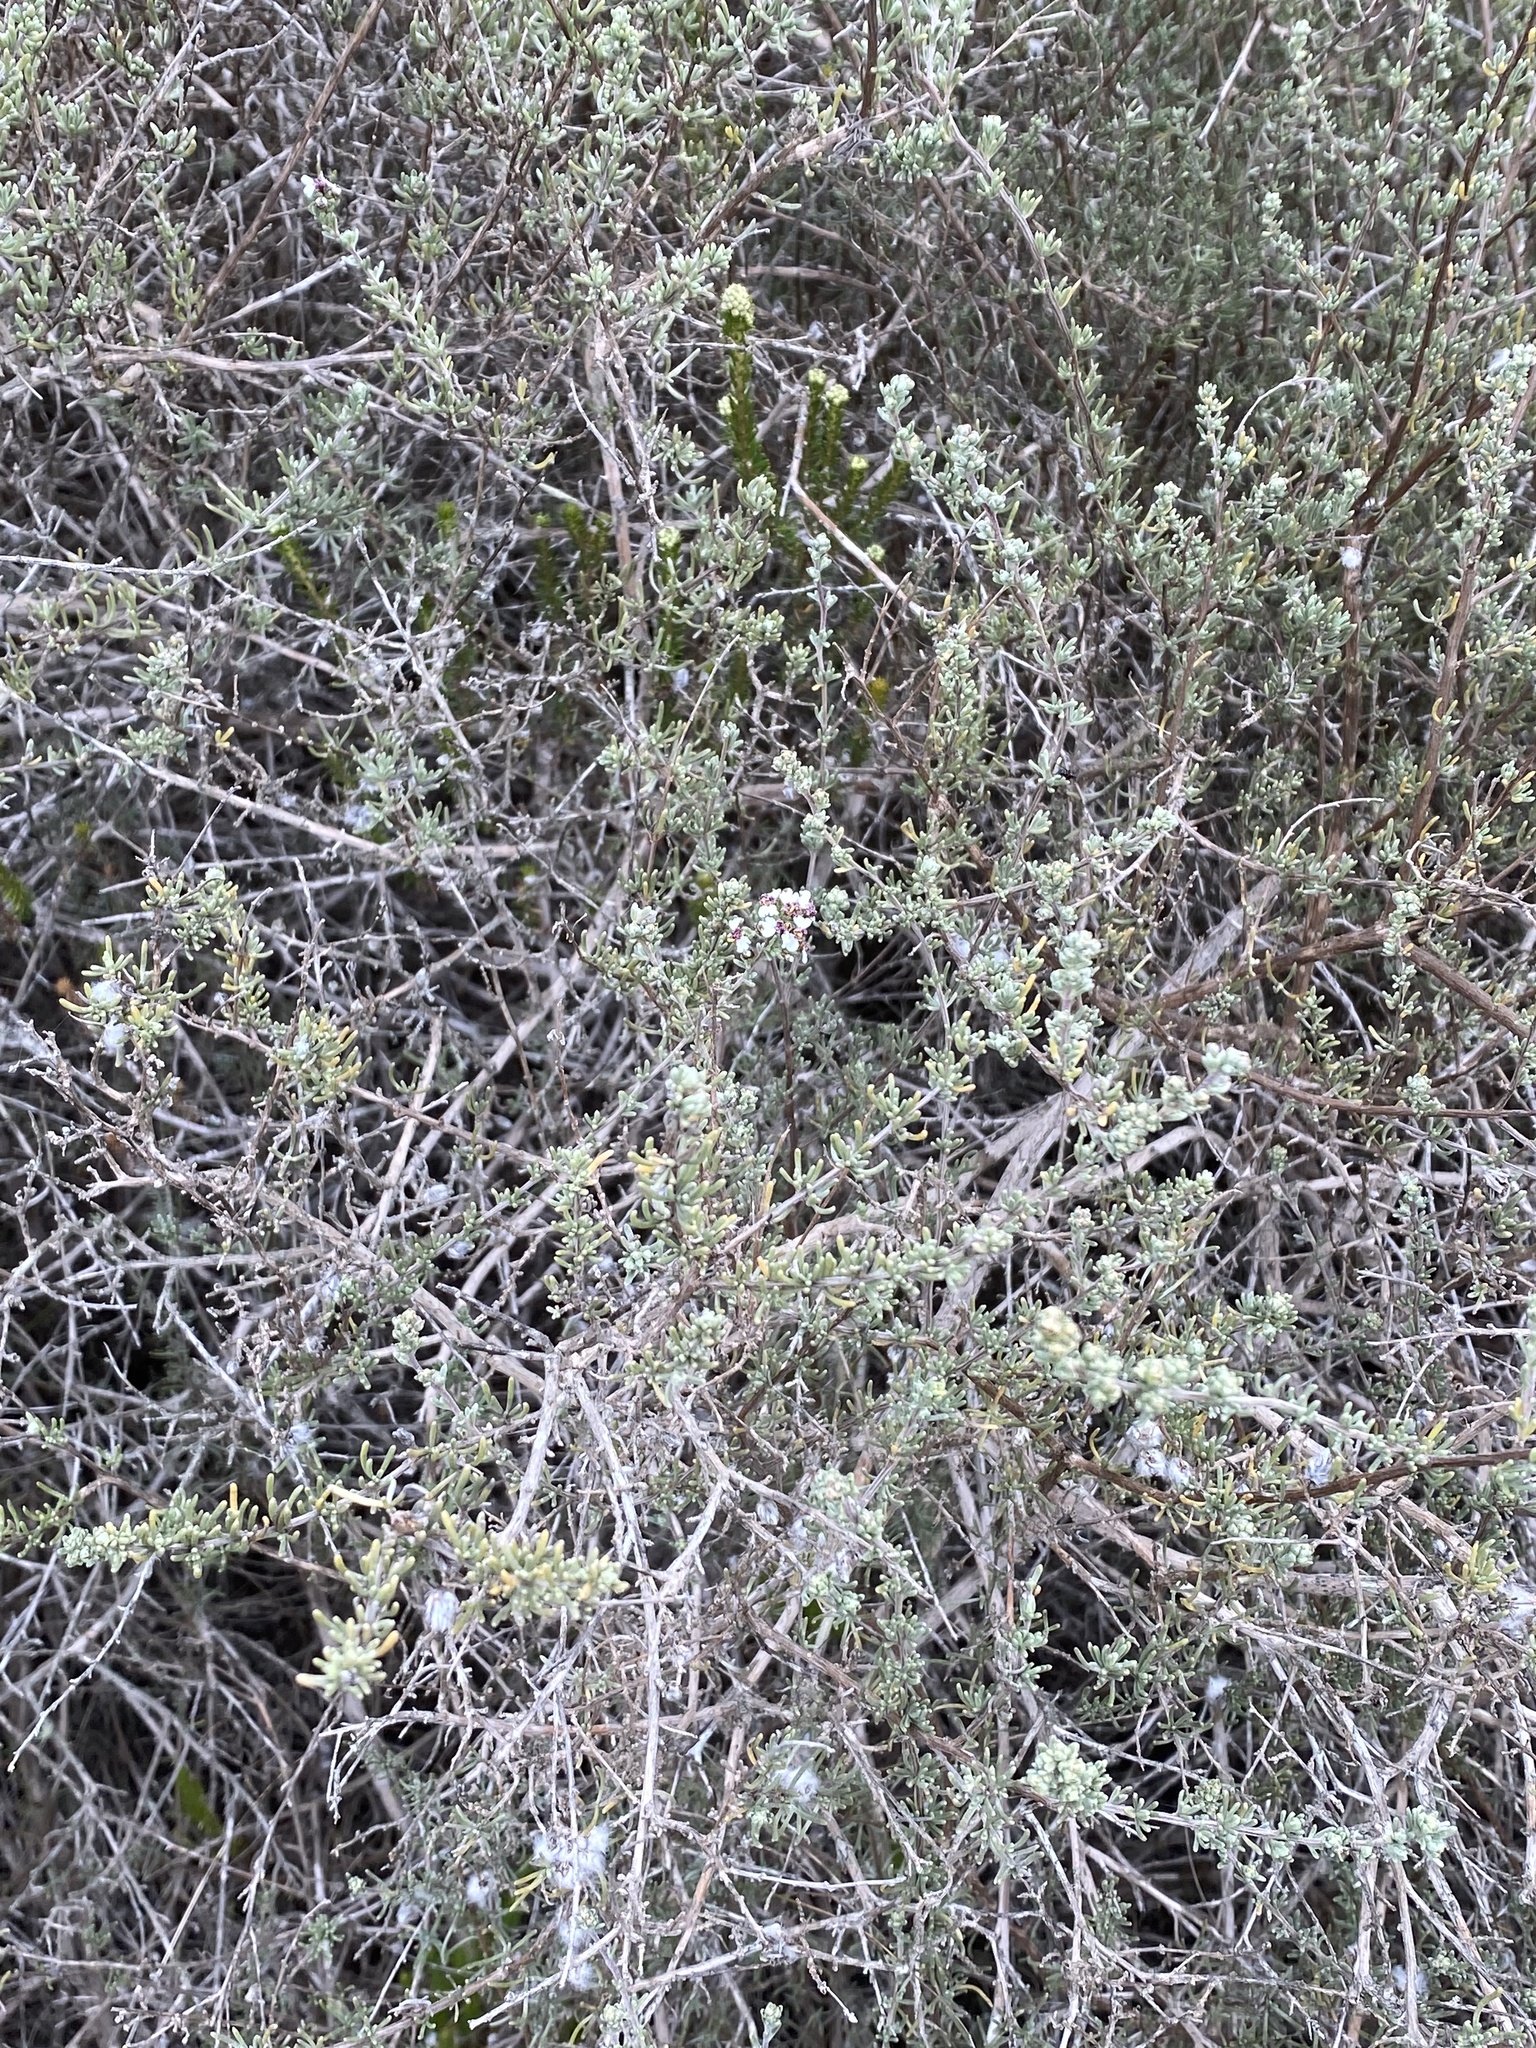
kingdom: Plantae
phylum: Tracheophyta
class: Magnoliopsida
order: Asterales
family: Asteraceae
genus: Eriocephalus
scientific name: Eriocephalus africanus
